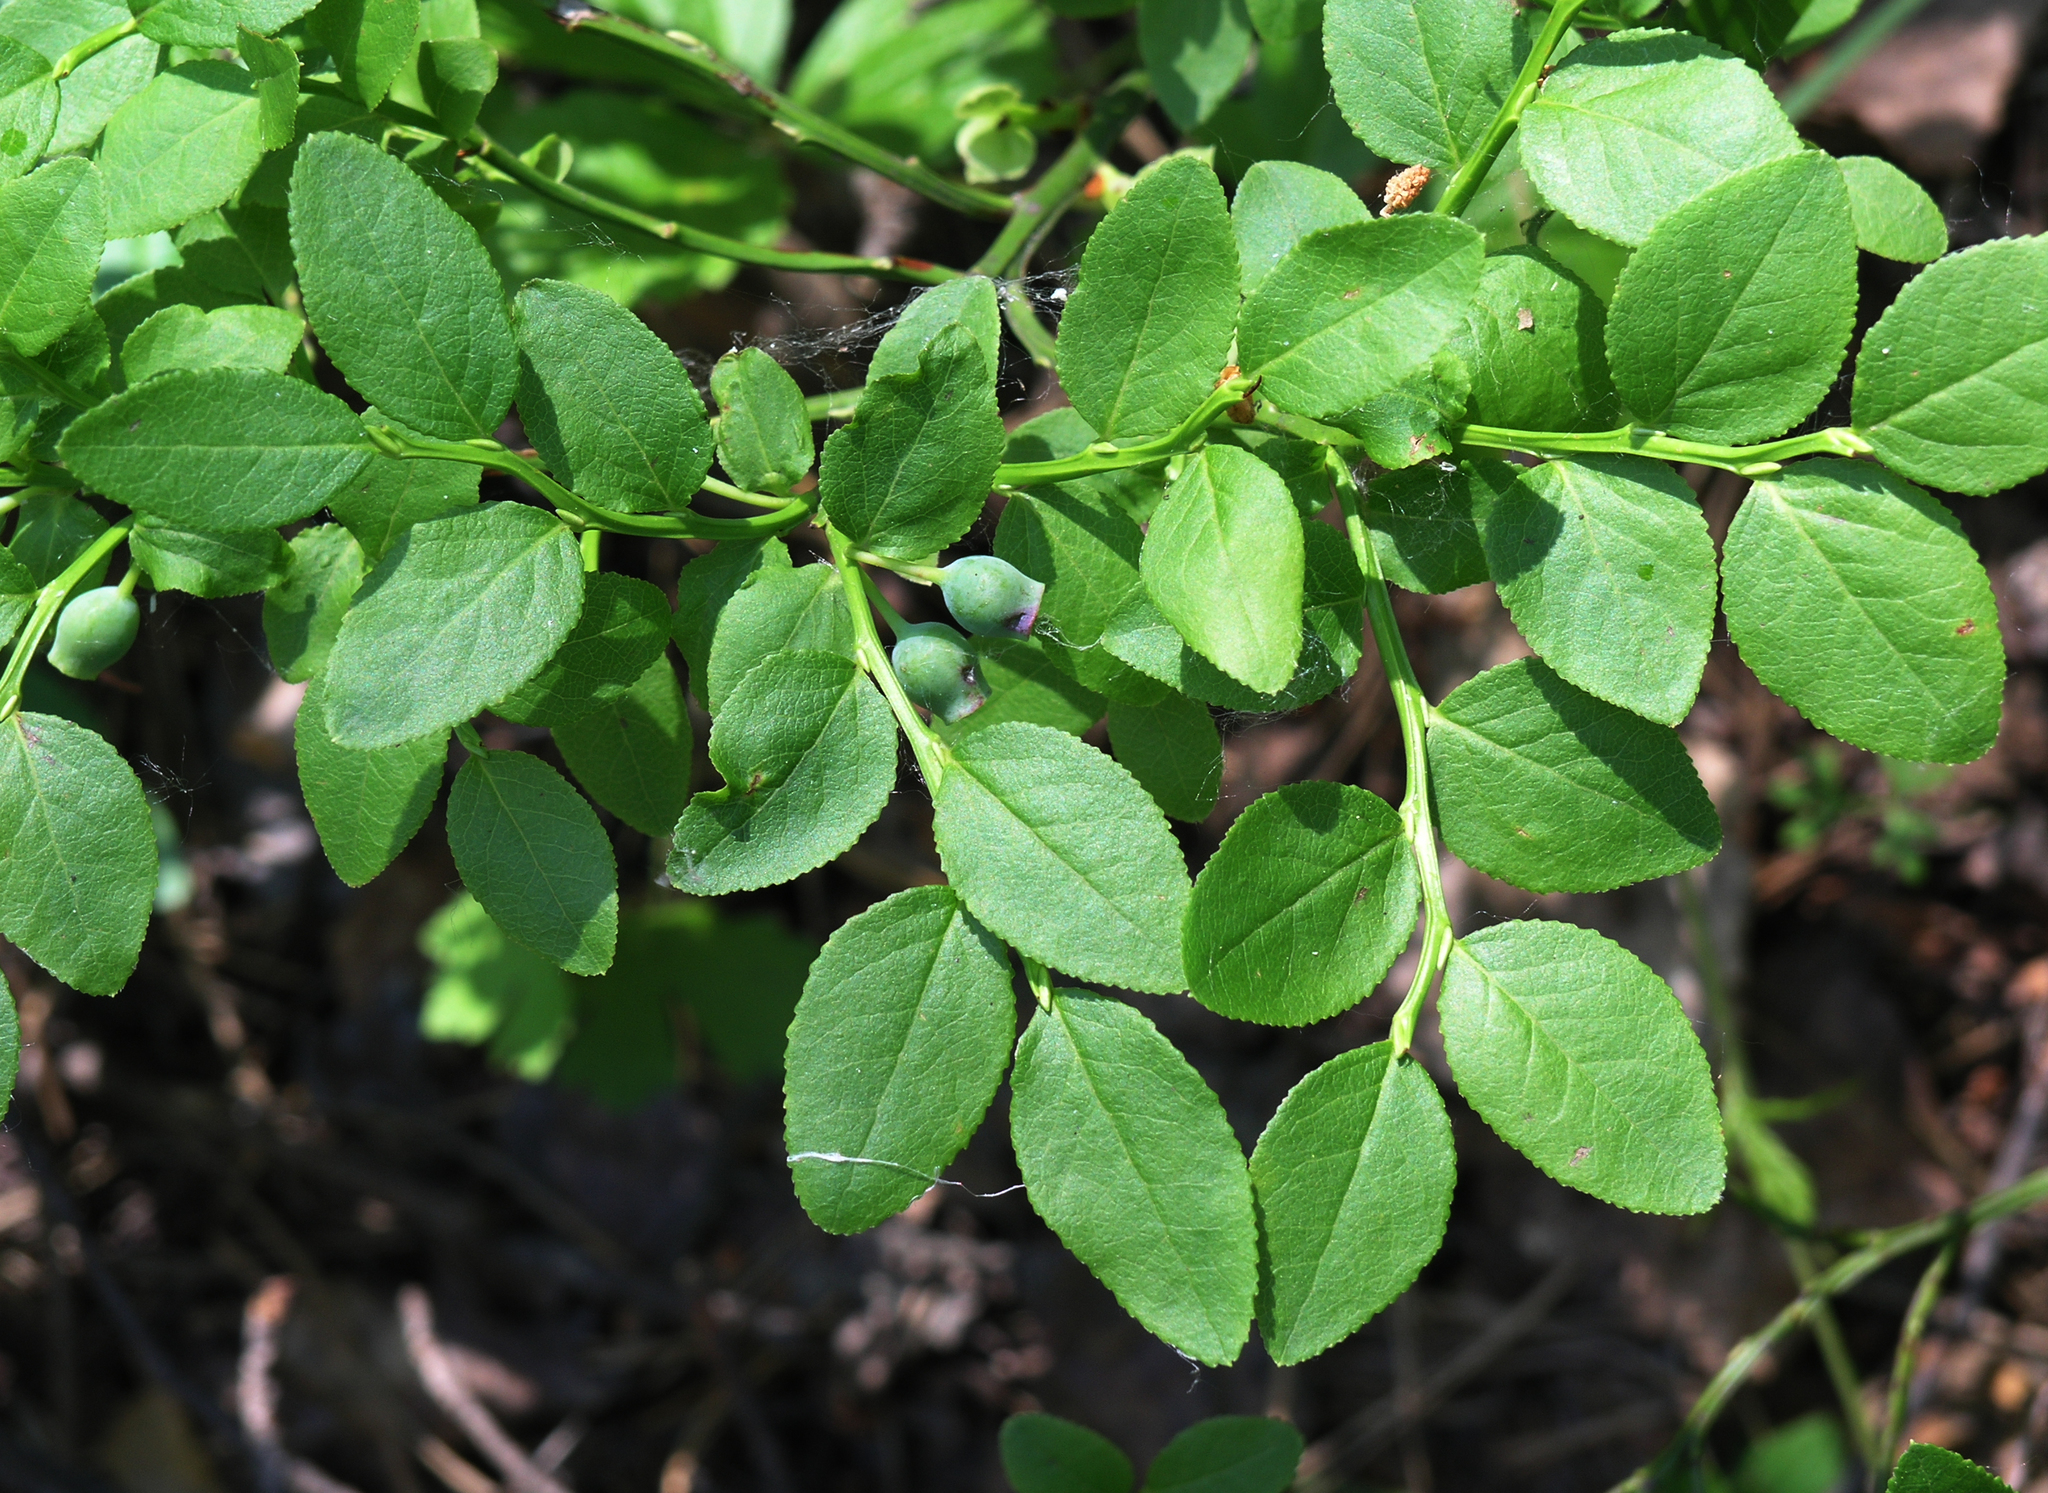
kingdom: Plantae
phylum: Tracheophyta
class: Magnoliopsida
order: Ericales
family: Ericaceae
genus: Vaccinium
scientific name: Vaccinium myrtillus
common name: Bilberry
